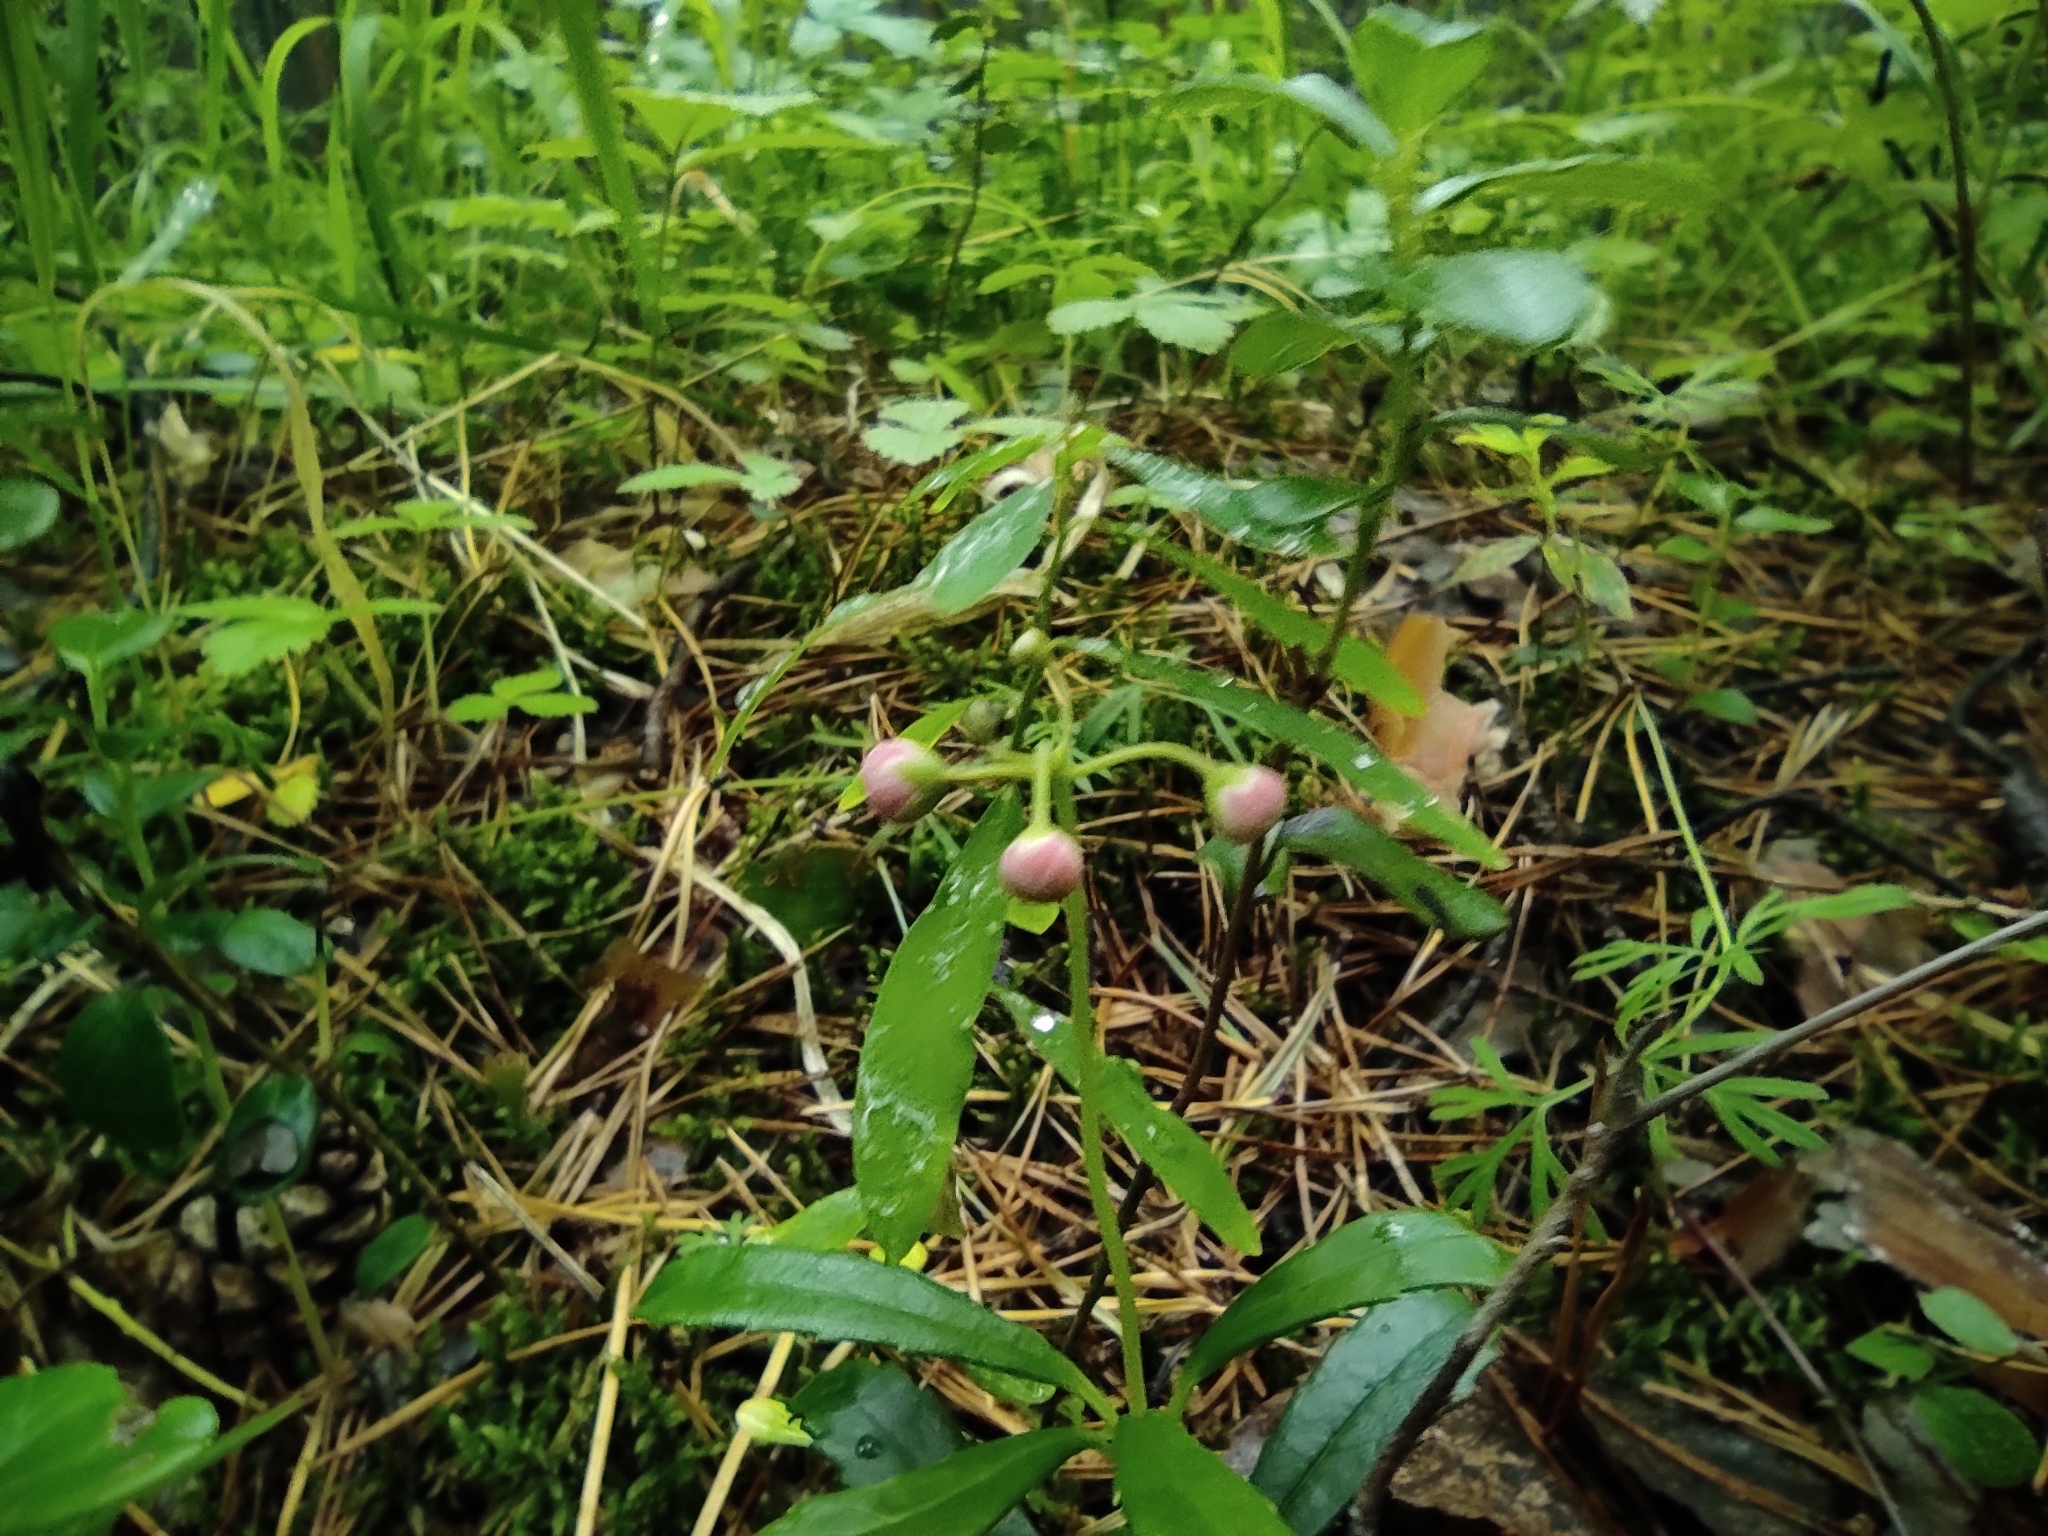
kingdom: Plantae
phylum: Tracheophyta
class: Magnoliopsida
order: Ericales
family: Ericaceae
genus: Chimaphila
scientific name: Chimaphila umbellata
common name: Pipsissewa
